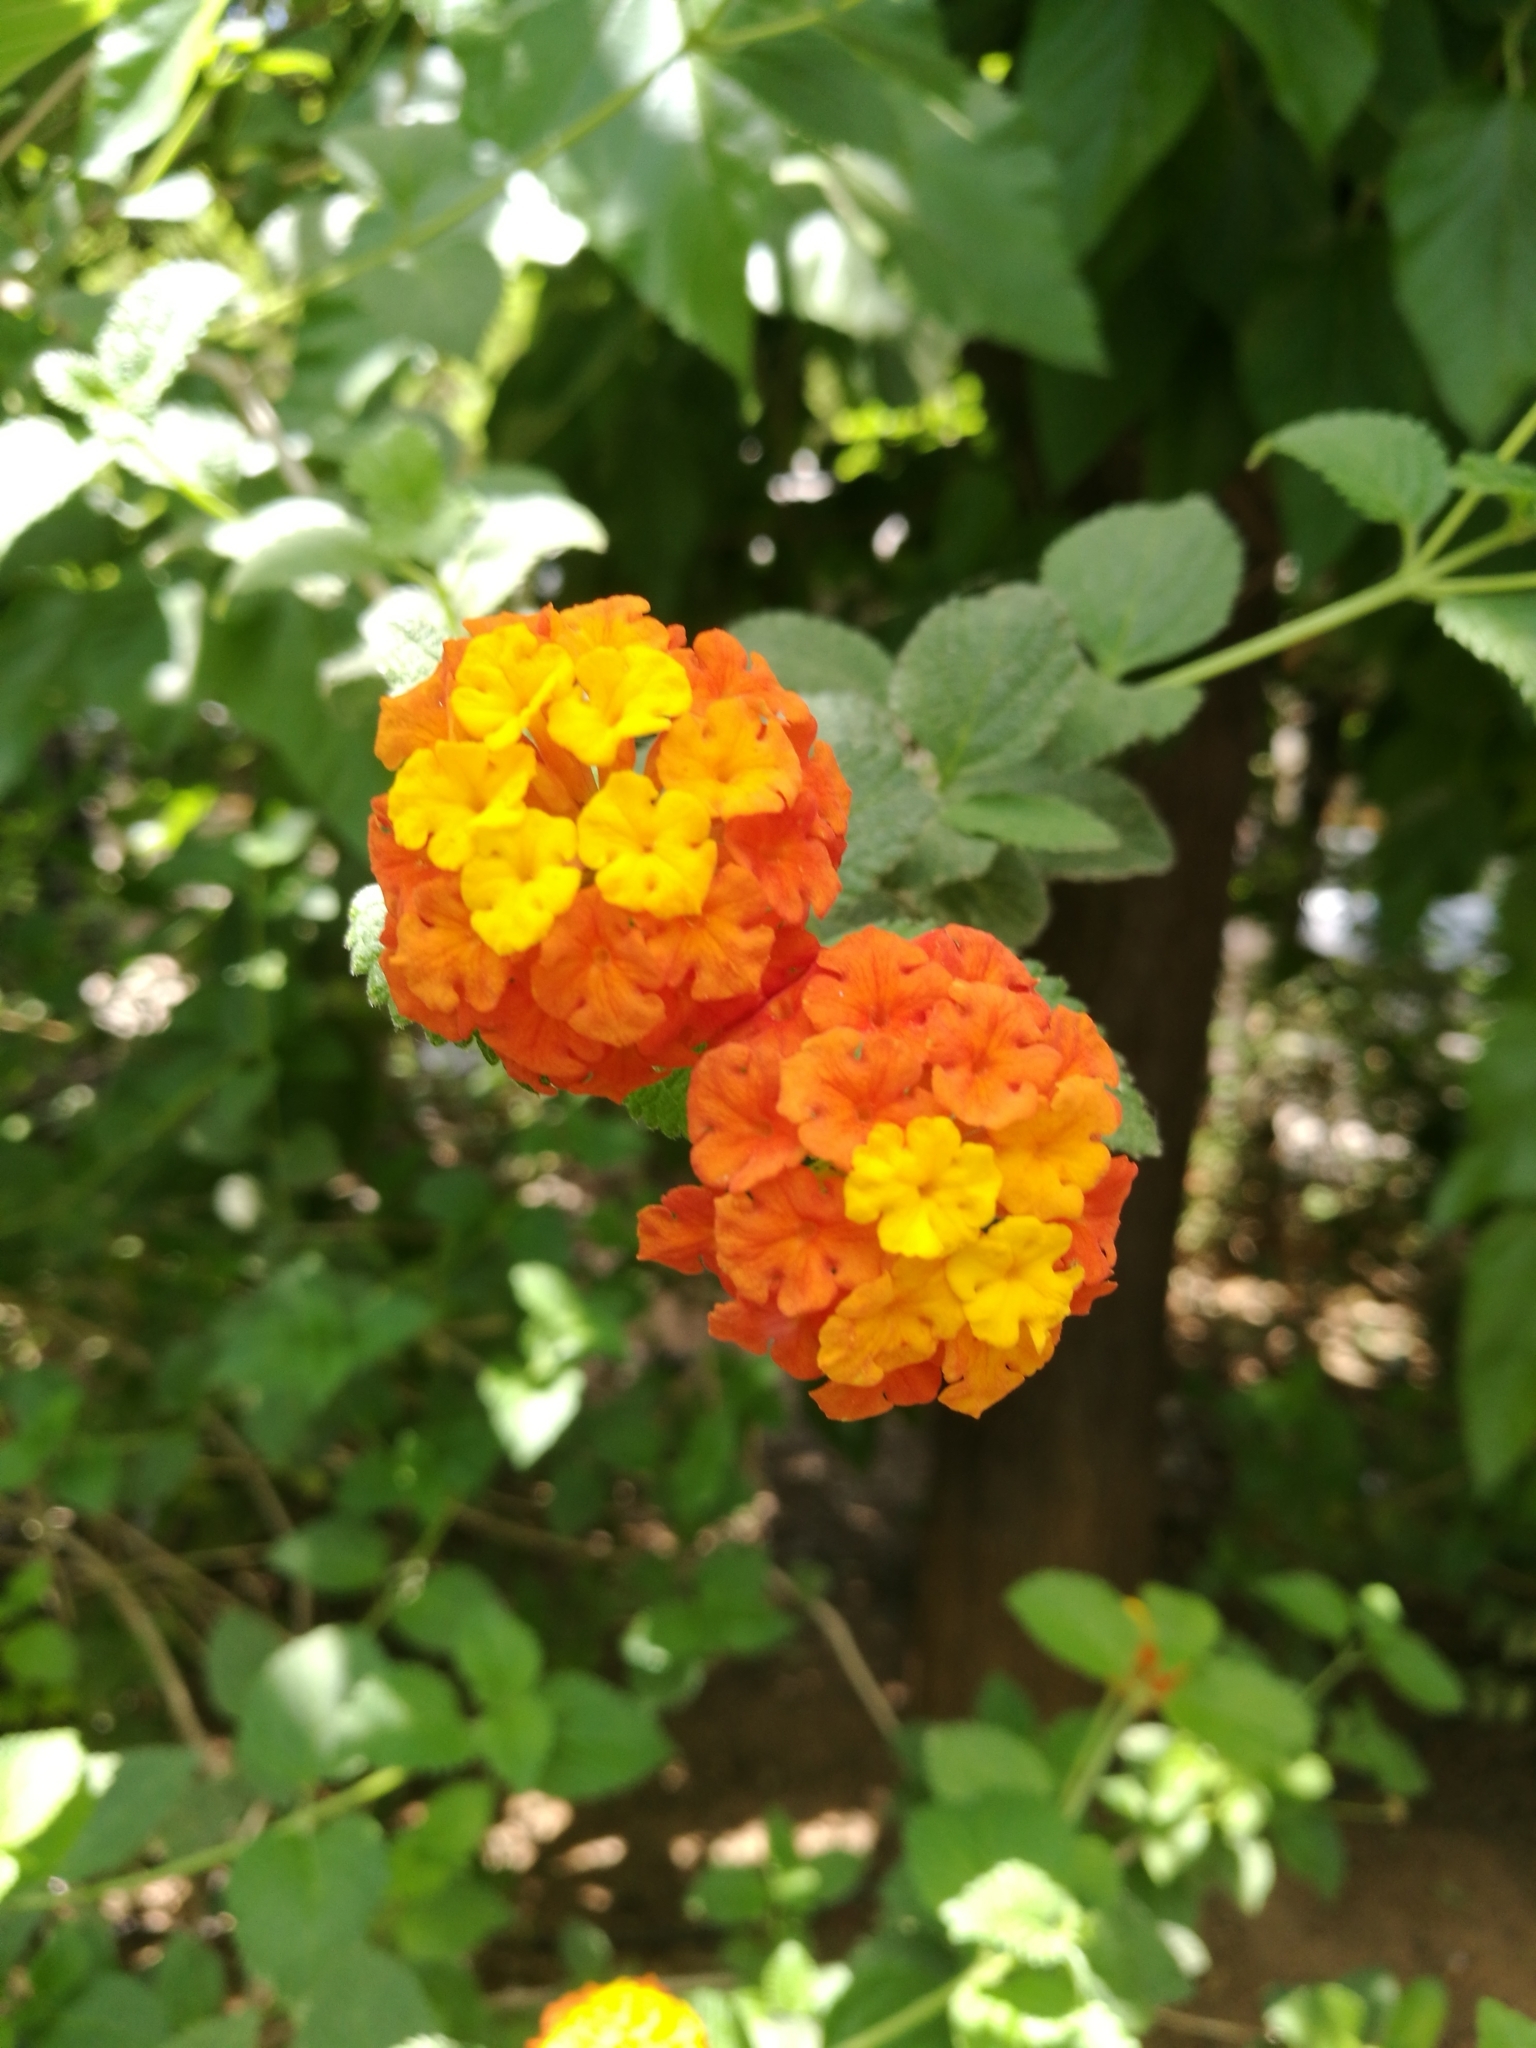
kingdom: Plantae
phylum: Tracheophyta
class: Magnoliopsida
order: Lamiales
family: Verbenaceae
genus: Lantana
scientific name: Lantana camara
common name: Lantana
